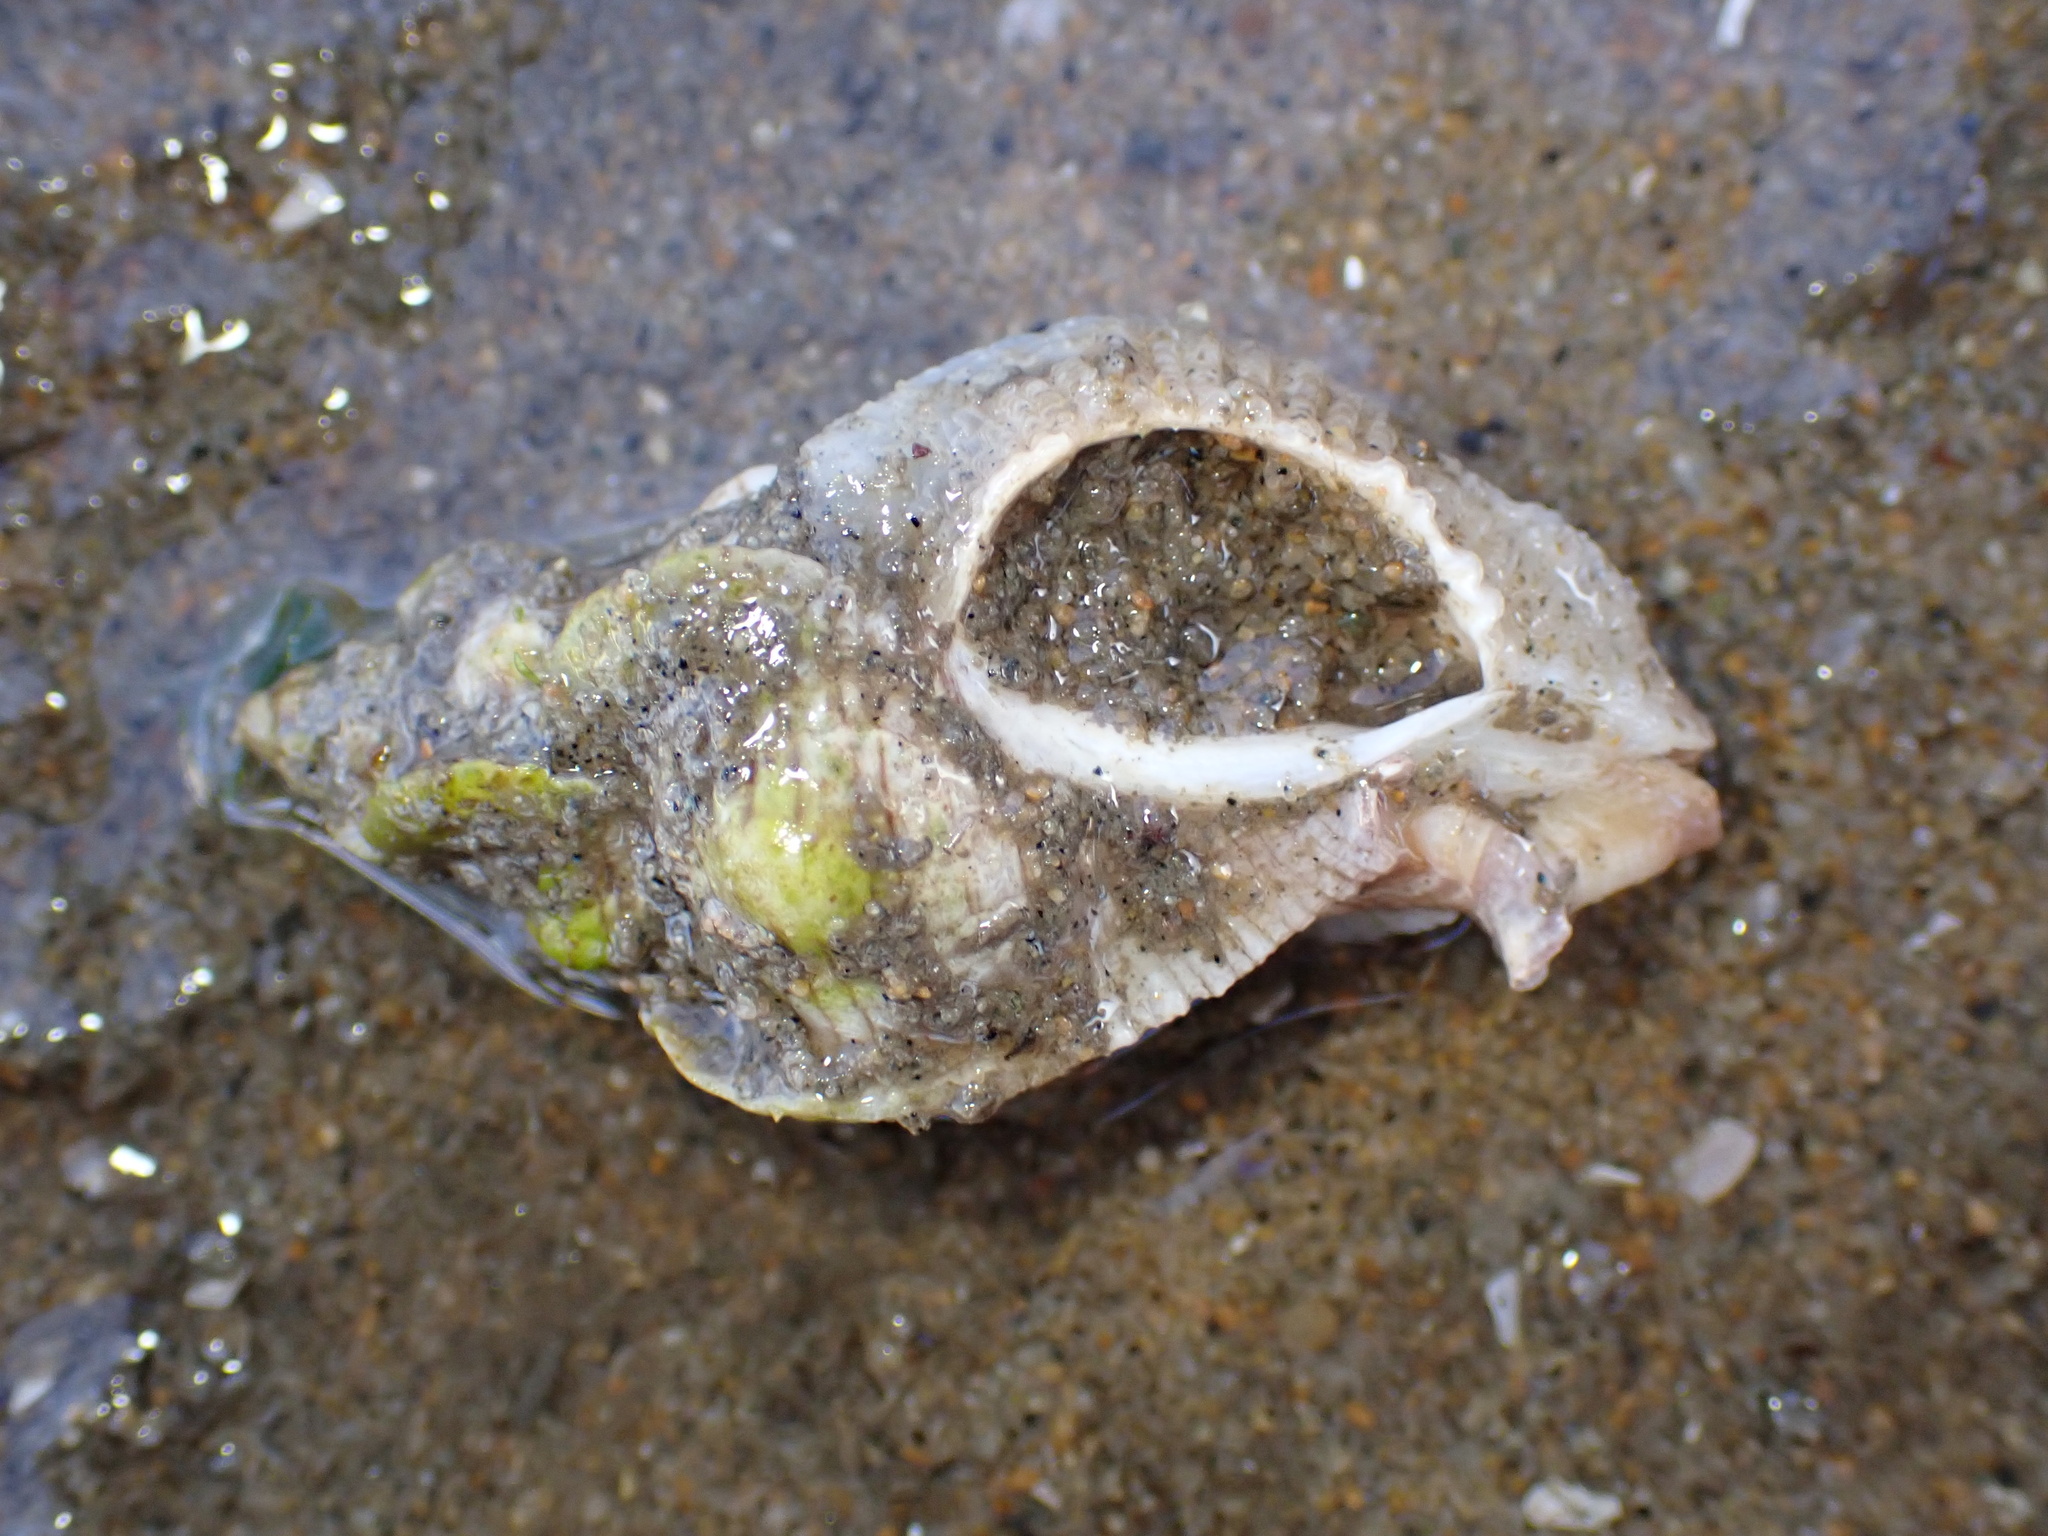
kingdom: Animalia
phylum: Mollusca
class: Gastropoda
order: Neogastropoda
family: Muricidae
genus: Pteropurpura
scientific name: Pteropurpura festiva
